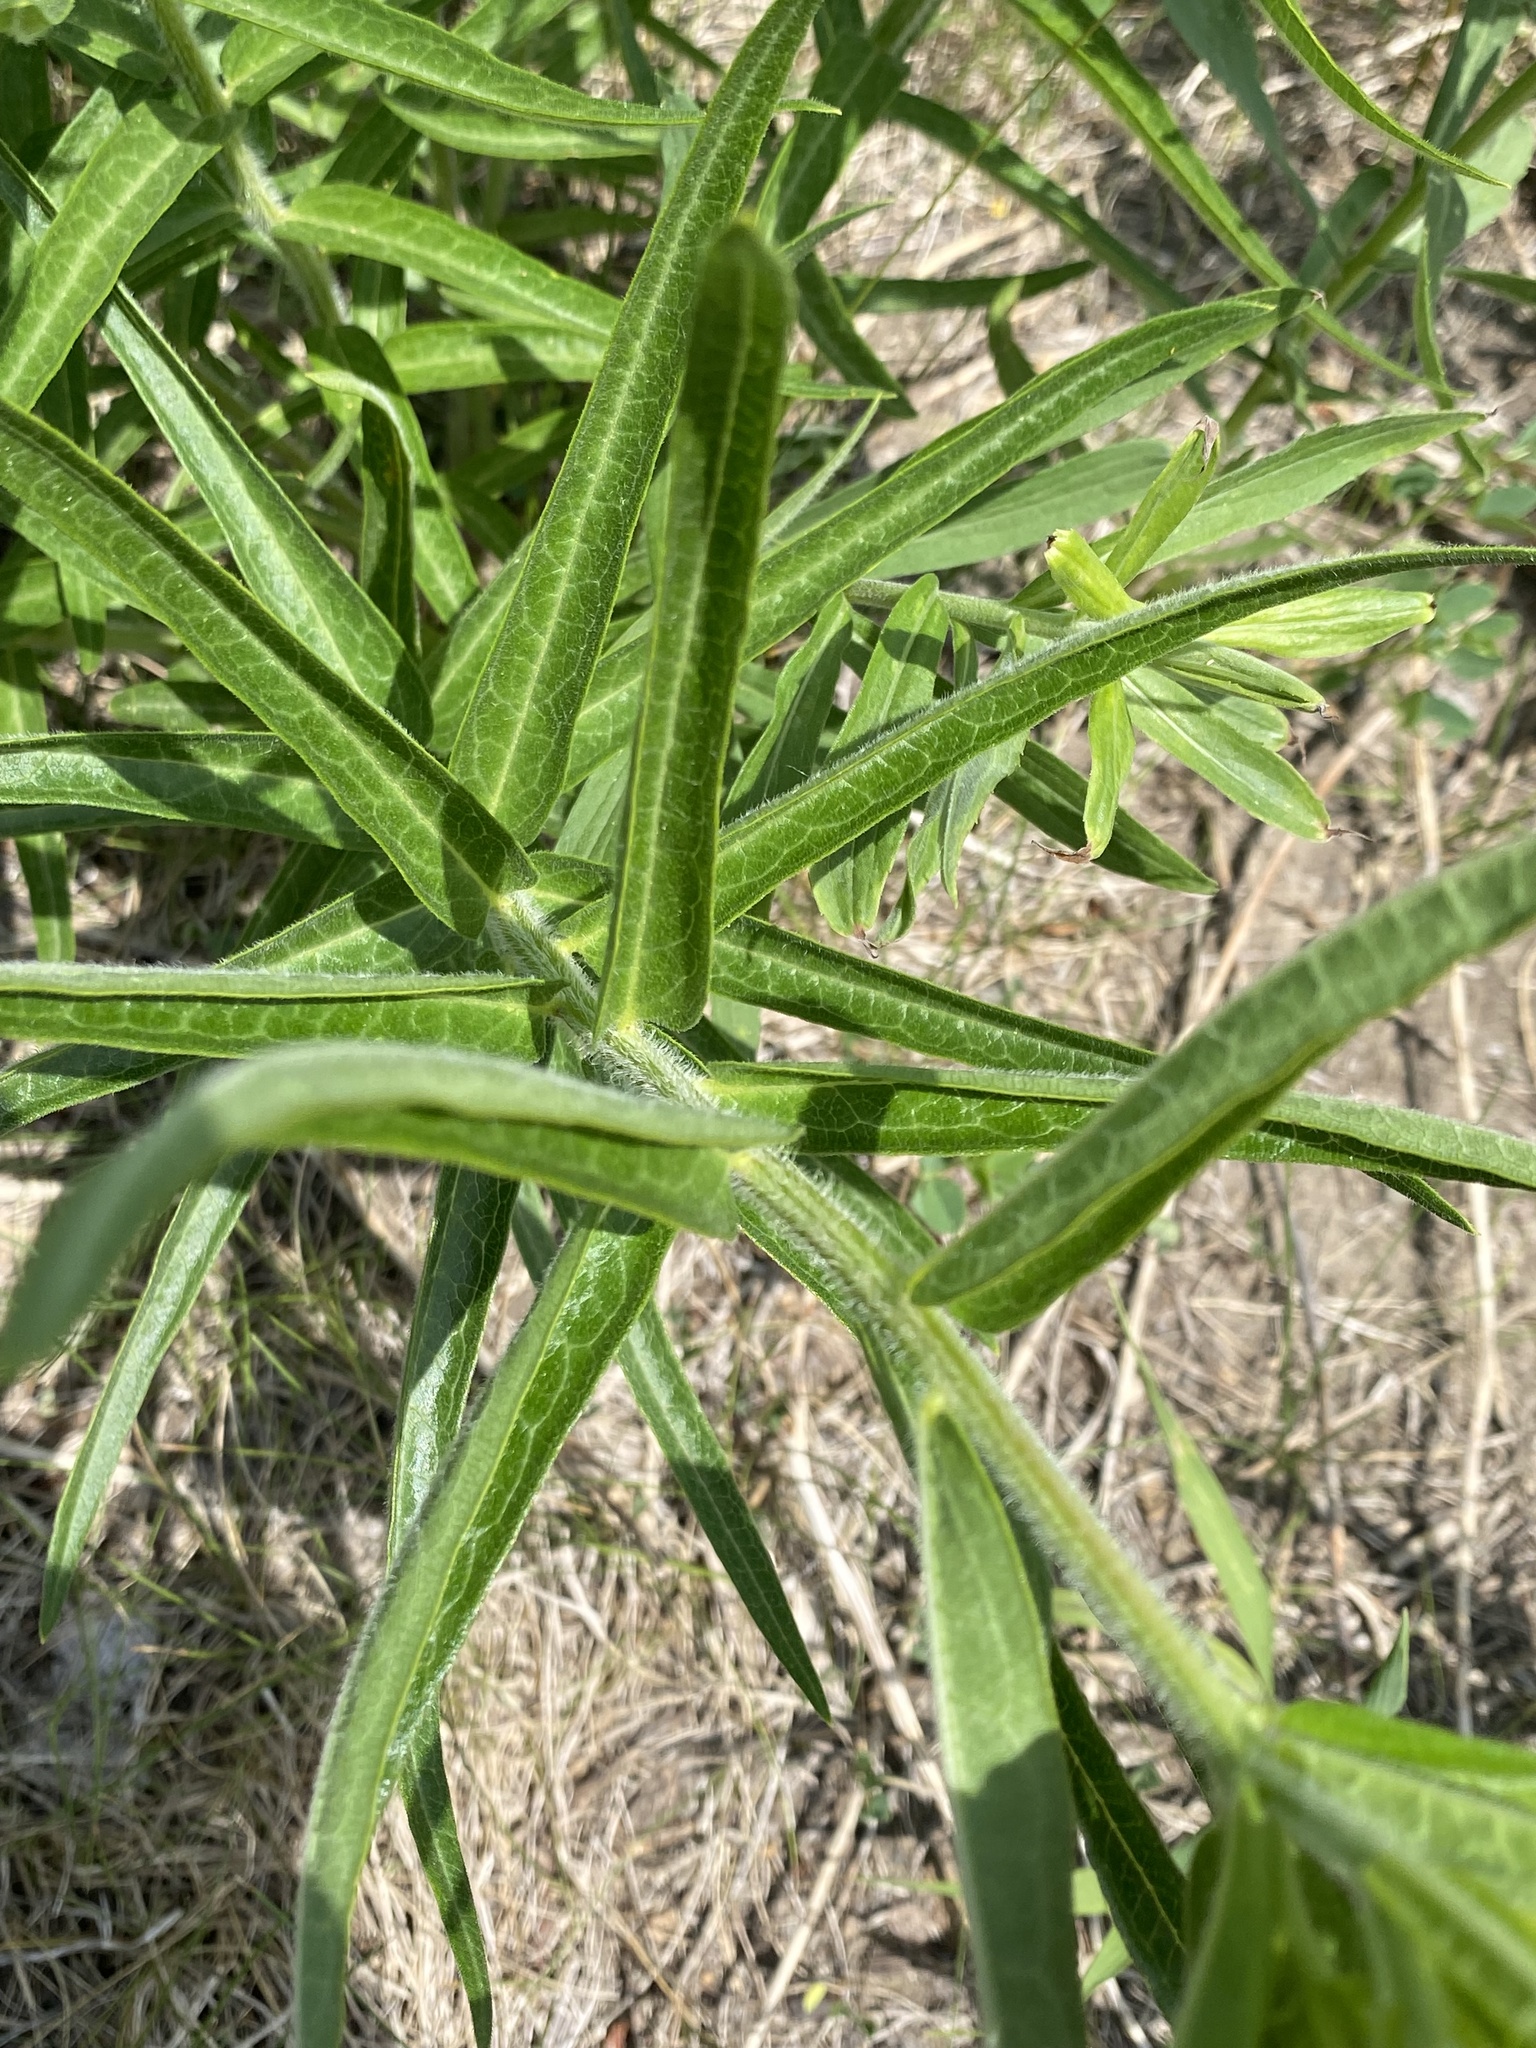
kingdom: Plantae
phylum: Tracheophyta
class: Magnoliopsida
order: Gentianales
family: Apocynaceae
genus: Asclepias
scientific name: Asclepias tuberosa
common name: Butterfly milkweed
